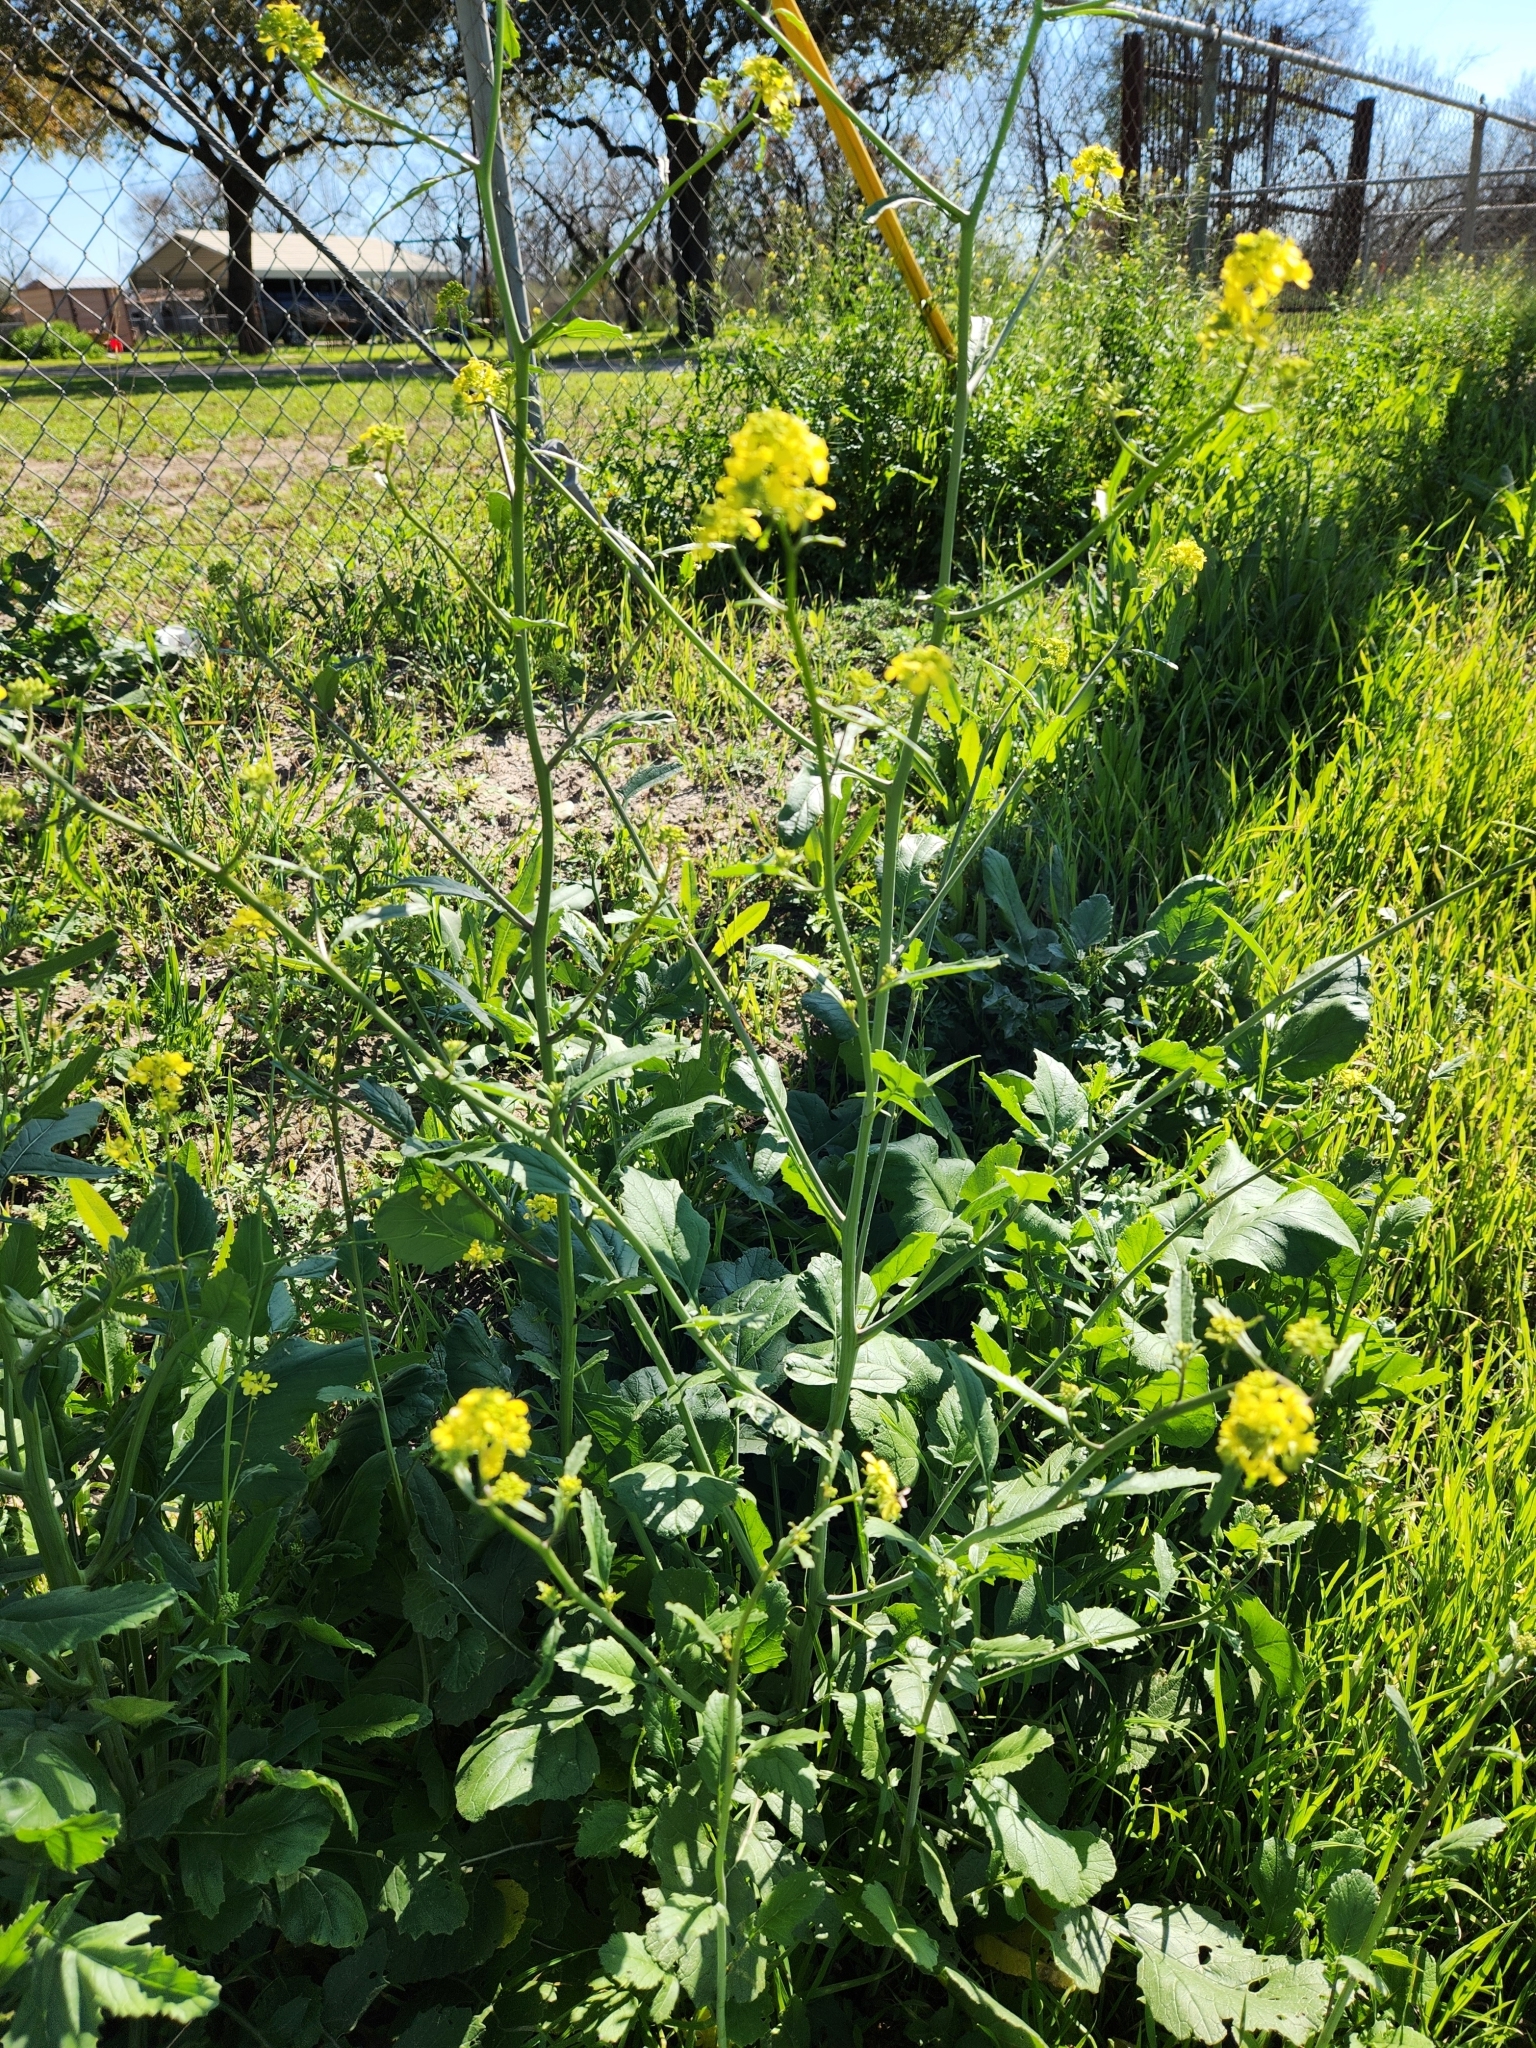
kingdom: Plantae
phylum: Tracheophyta
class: Magnoliopsida
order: Brassicales
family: Brassicaceae
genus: Rapistrum
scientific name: Rapistrum rugosum
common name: Annual bastardcabbage
